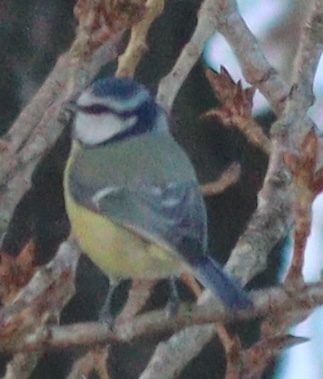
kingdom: Animalia
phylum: Chordata
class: Aves
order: Passeriformes
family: Paridae
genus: Cyanistes
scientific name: Cyanistes caeruleus
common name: Eurasian blue tit
